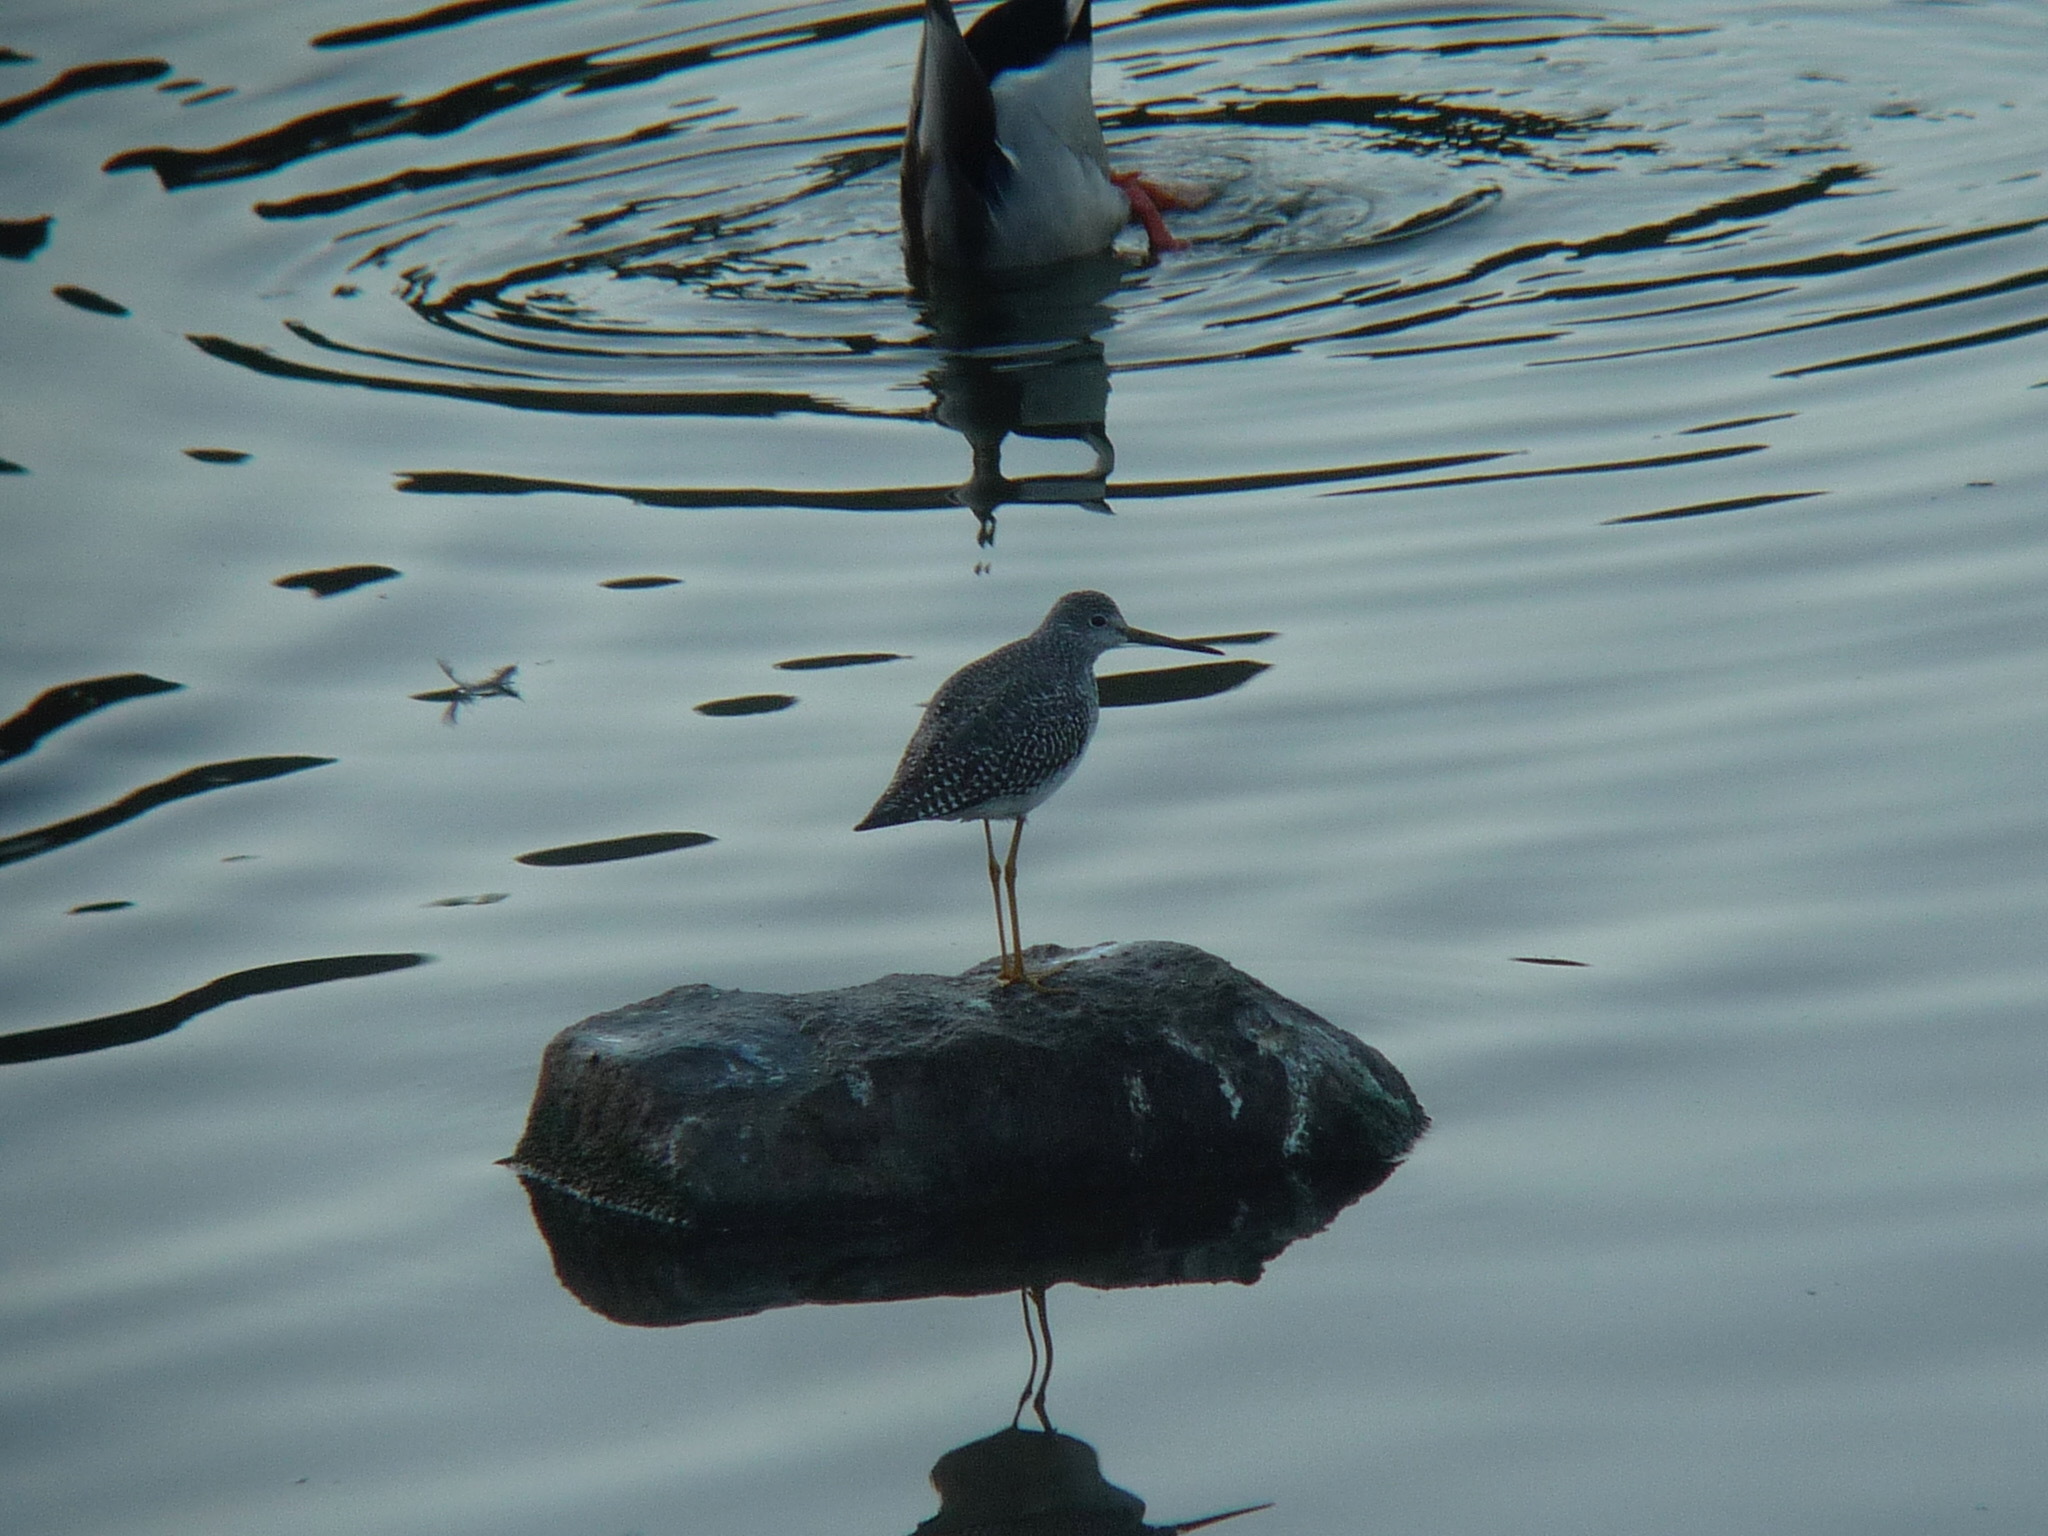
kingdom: Animalia
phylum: Chordata
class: Aves
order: Charadriiformes
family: Scolopacidae
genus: Tringa
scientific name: Tringa melanoleuca
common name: Greater yellowlegs
